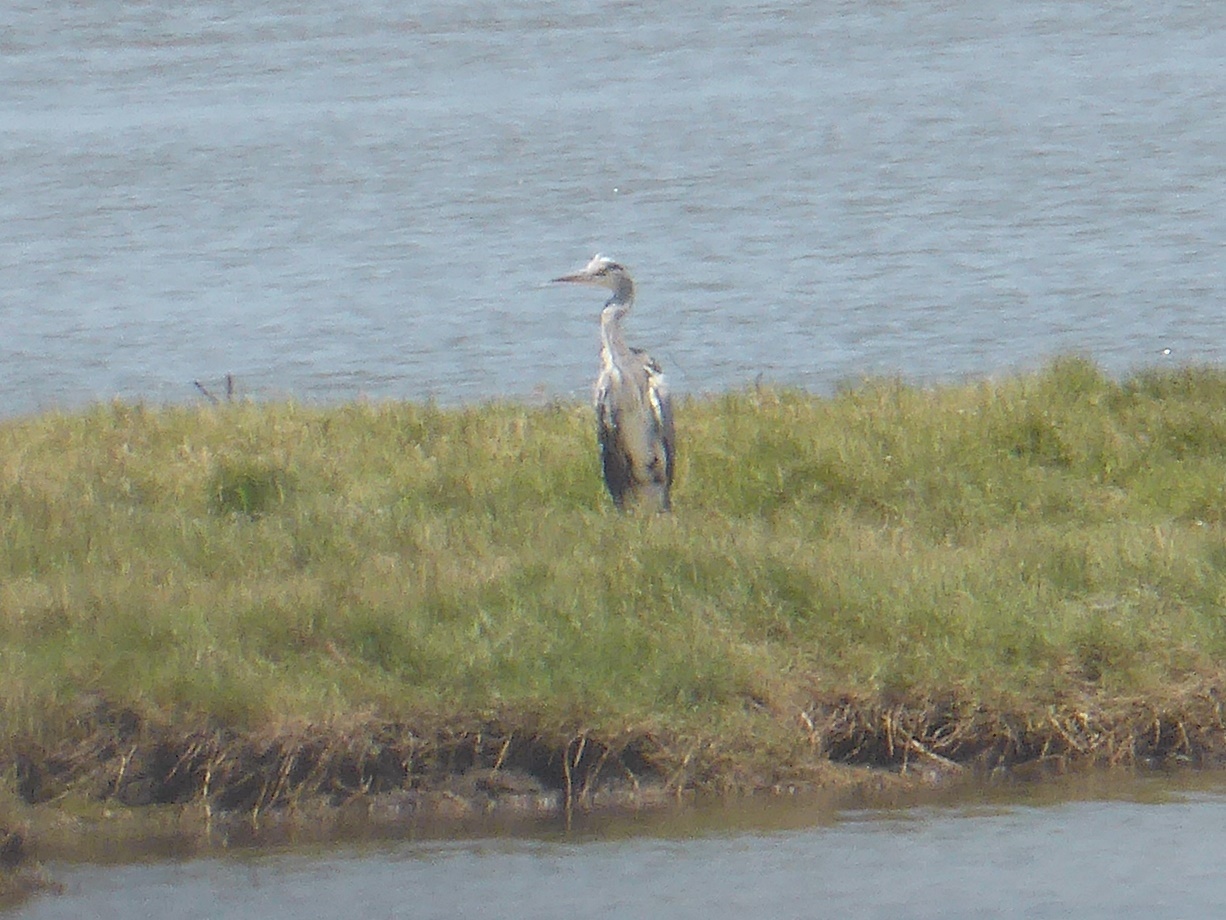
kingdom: Animalia
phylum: Chordata
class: Aves
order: Pelecaniformes
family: Ardeidae
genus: Ardea
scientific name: Ardea cinerea
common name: Grey heron
